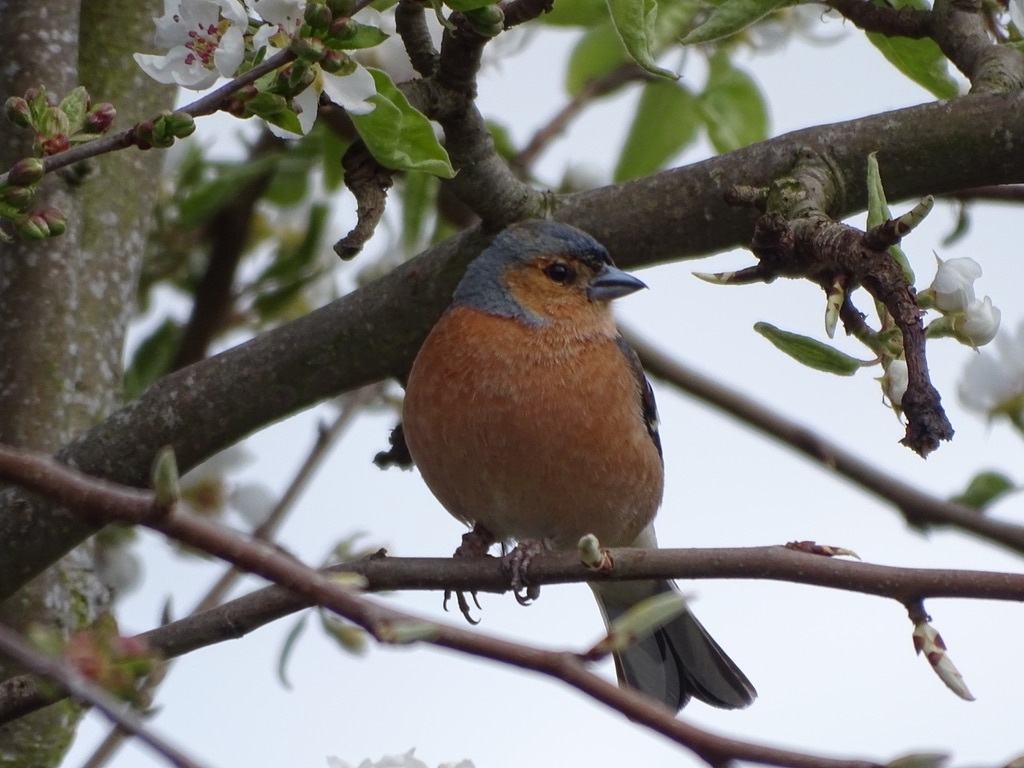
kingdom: Animalia
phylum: Chordata
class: Aves
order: Passeriformes
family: Fringillidae
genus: Fringilla
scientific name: Fringilla coelebs
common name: Common chaffinch
